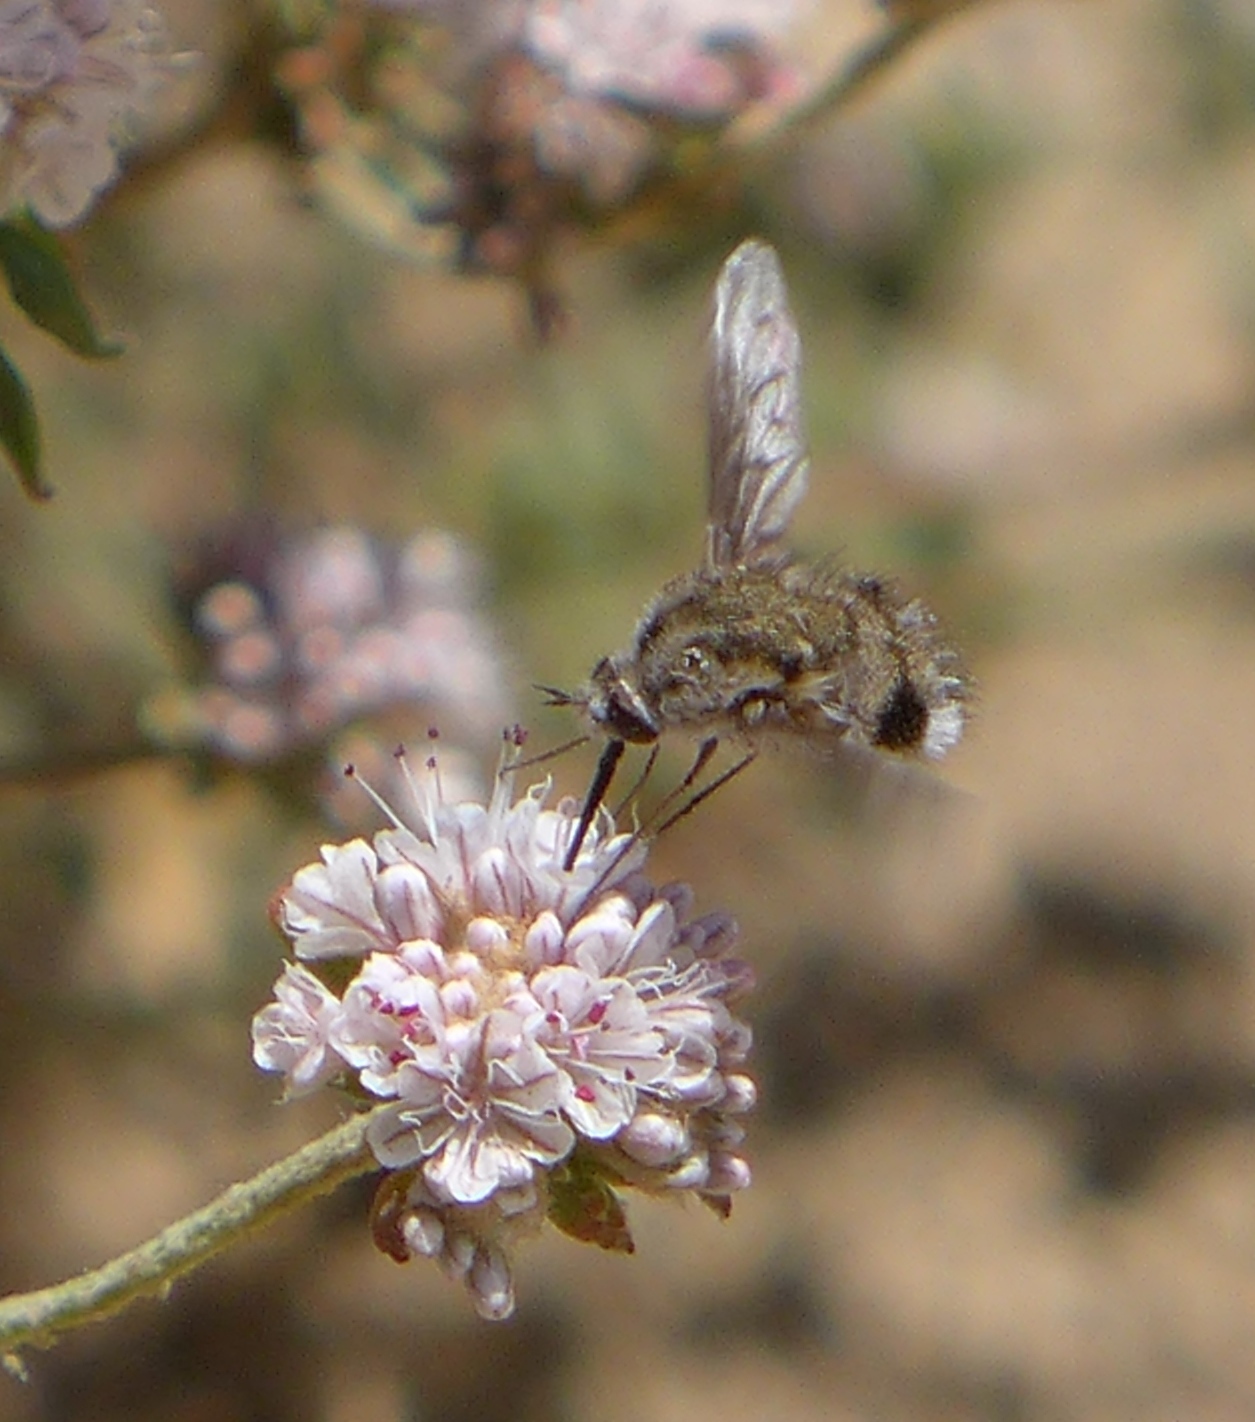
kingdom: Animalia
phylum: Arthropoda
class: Insecta
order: Diptera
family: Bombyliidae
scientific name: Bombyliidae
